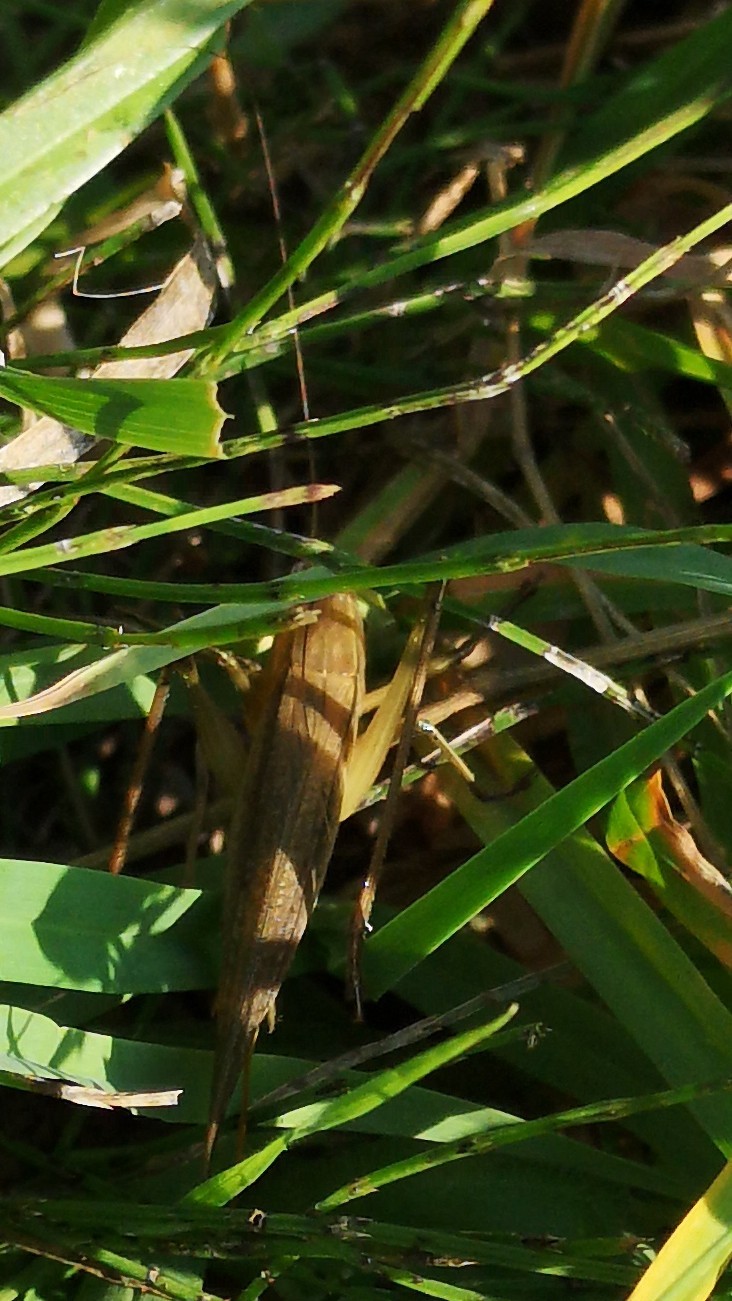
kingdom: Animalia
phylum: Arthropoda
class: Insecta
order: Orthoptera
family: Tettigoniidae
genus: Ruspolia
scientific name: Ruspolia nitidula
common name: Large conehead
